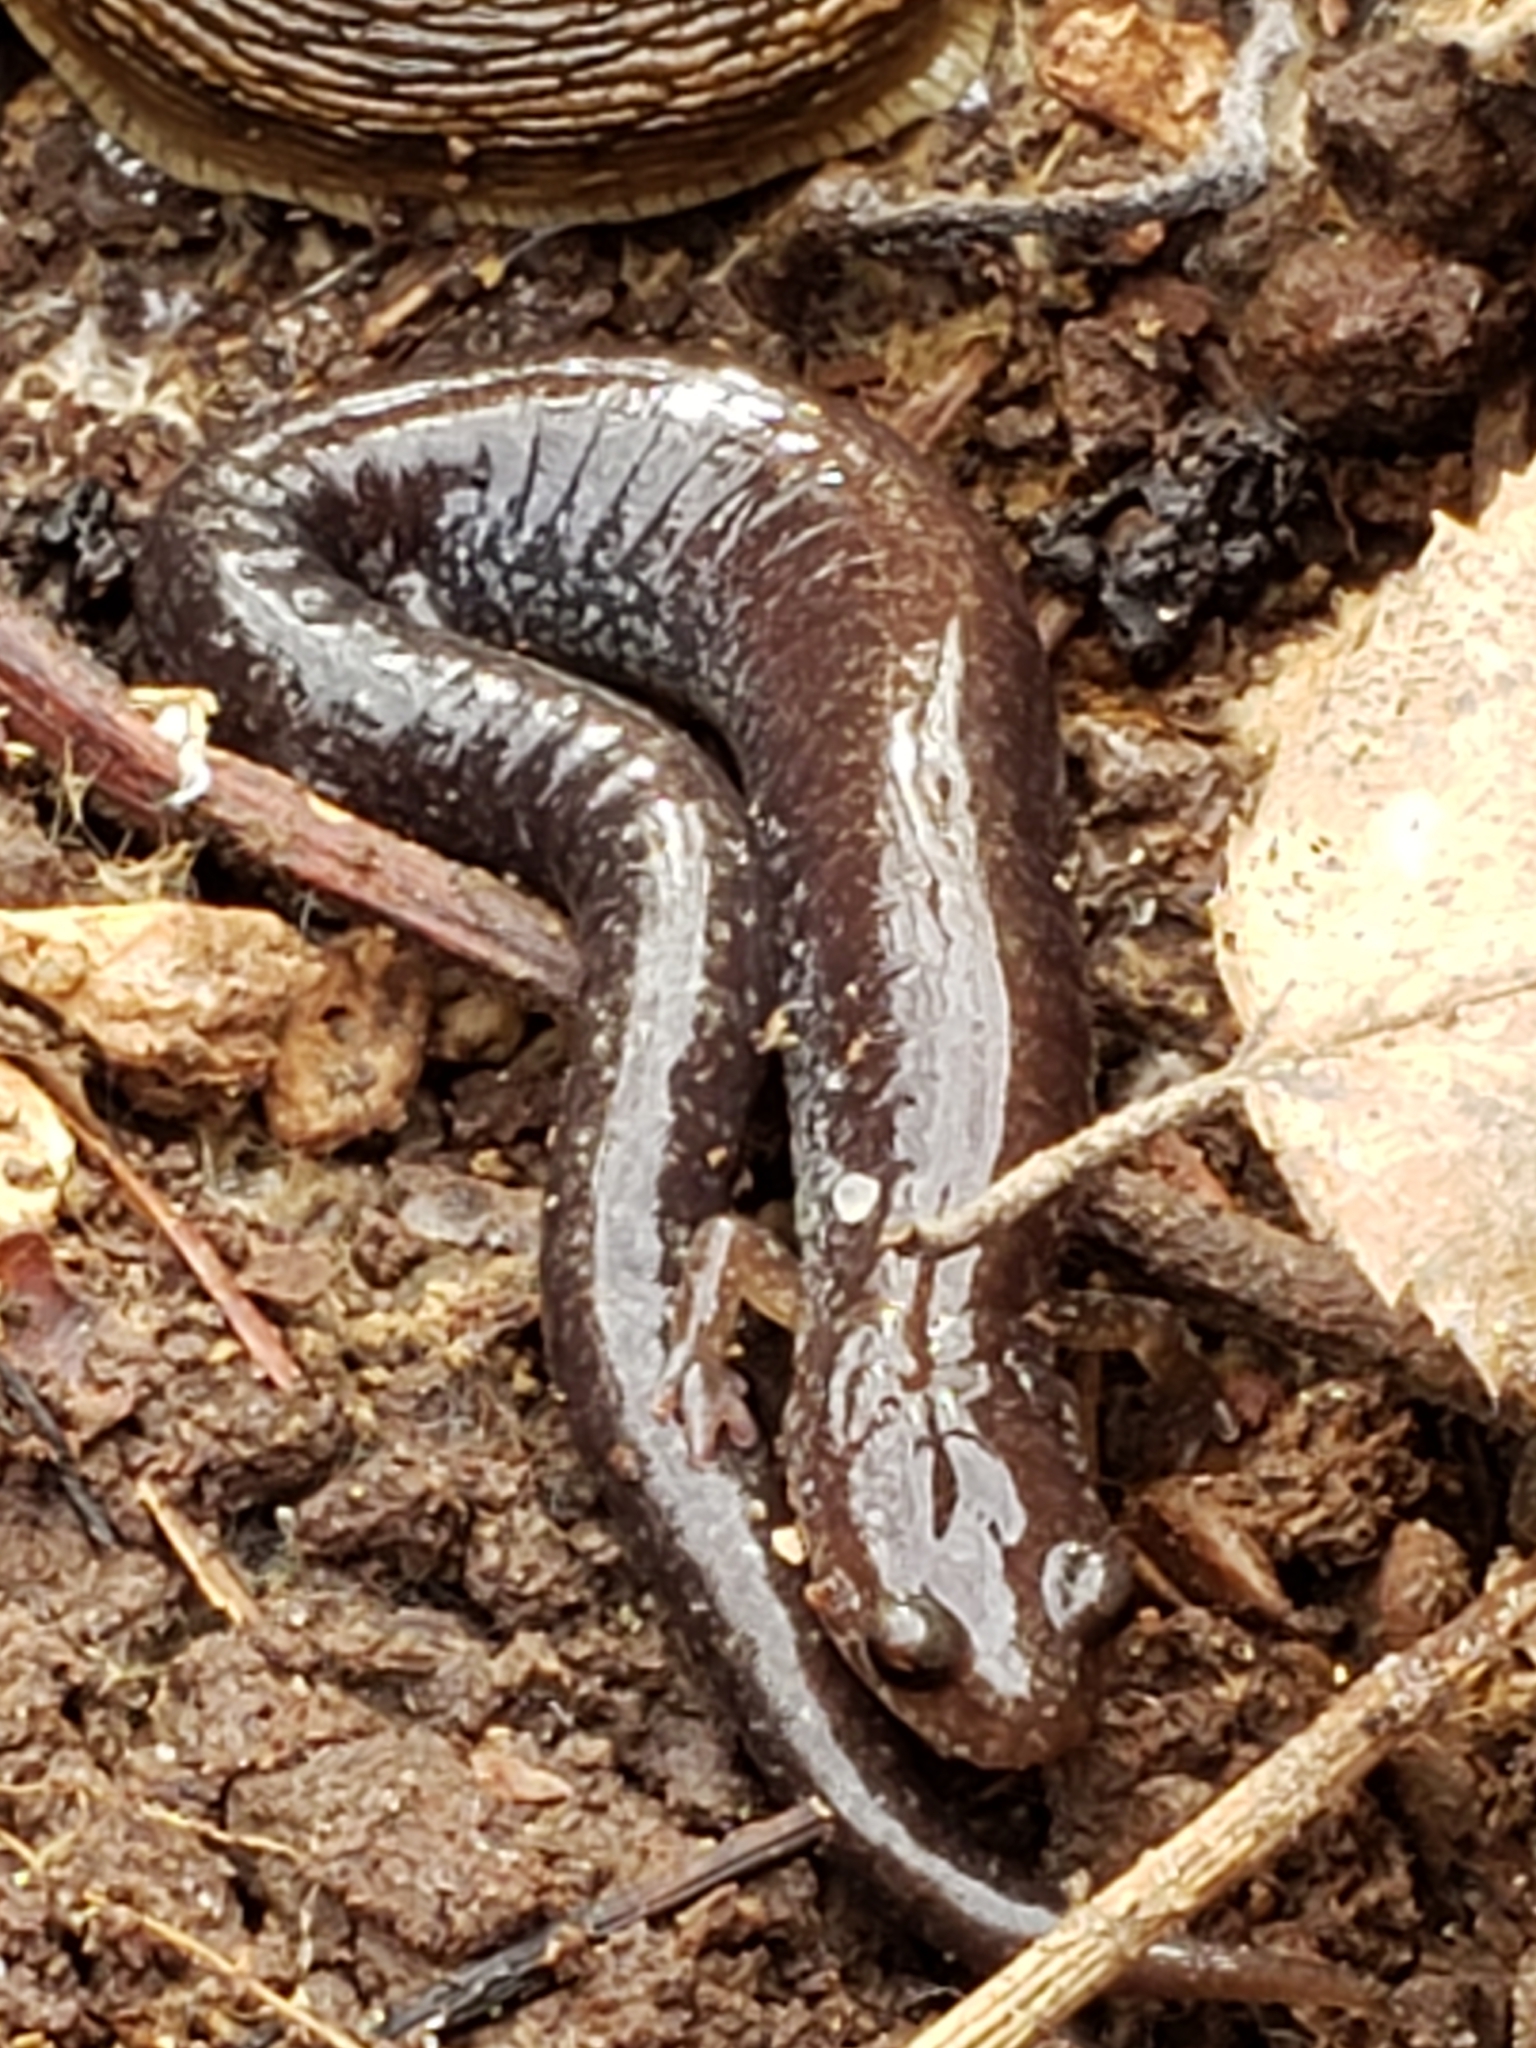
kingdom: Animalia
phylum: Chordata
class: Amphibia
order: Caudata
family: Plethodontidae
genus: Plethodon
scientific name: Plethodon cinereus
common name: Redback salamander
